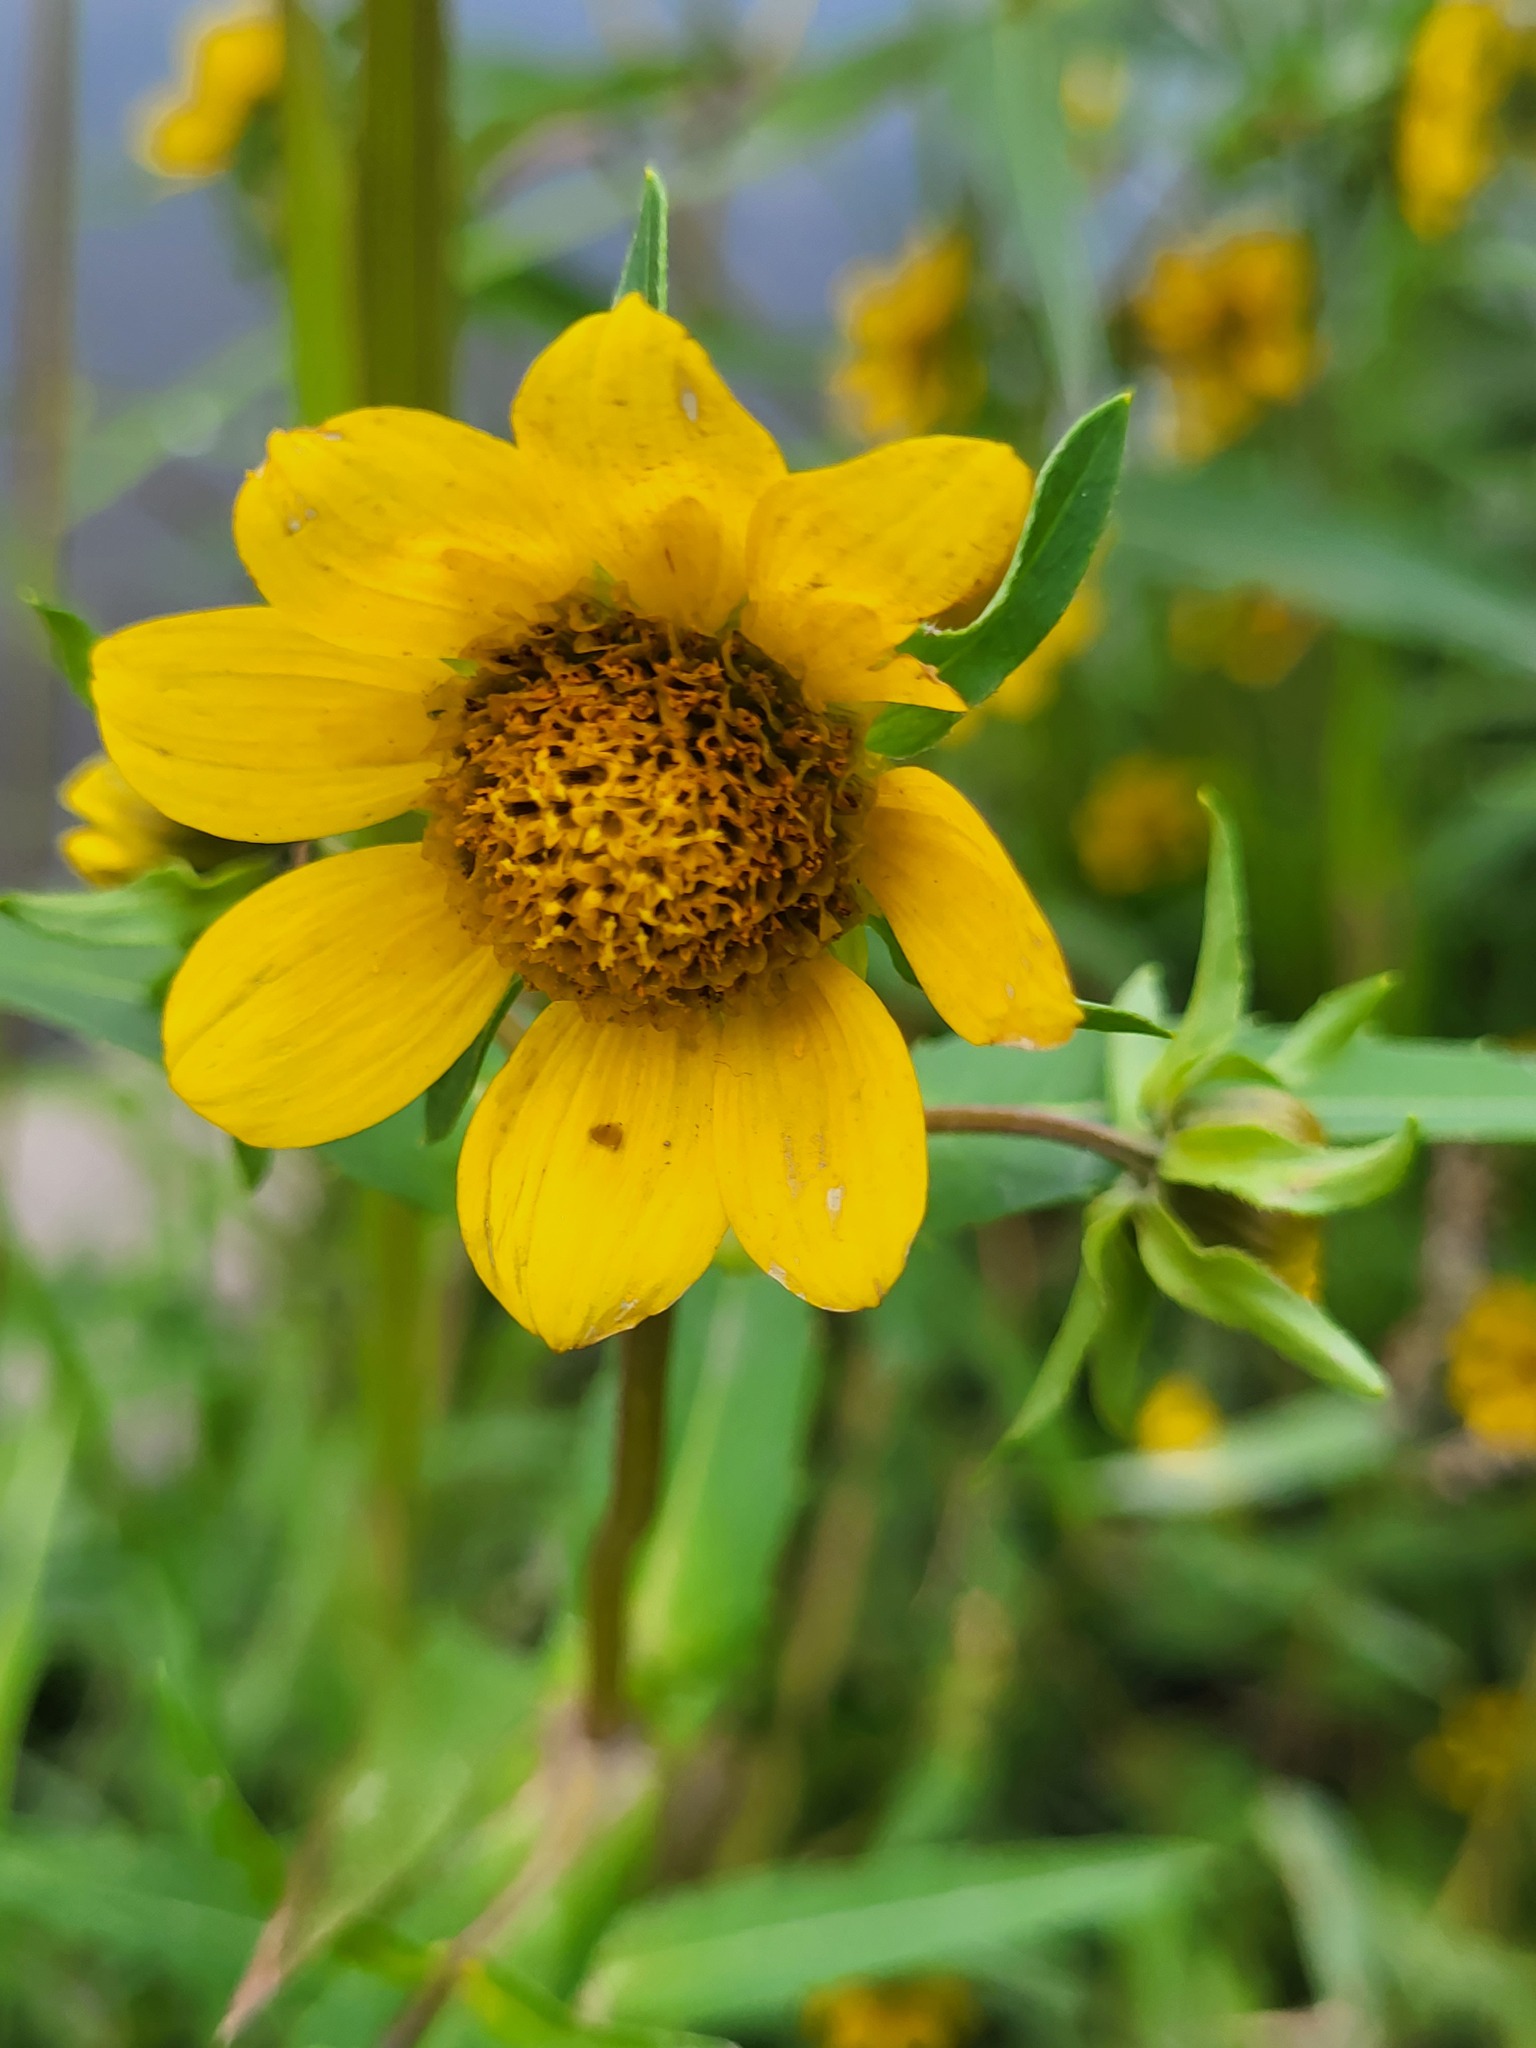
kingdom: Plantae
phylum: Tracheophyta
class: Magnoliopsida
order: Asterales
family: Asteraceae
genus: Bidens
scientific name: Bidens cernua
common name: Nodding bur-marigold
